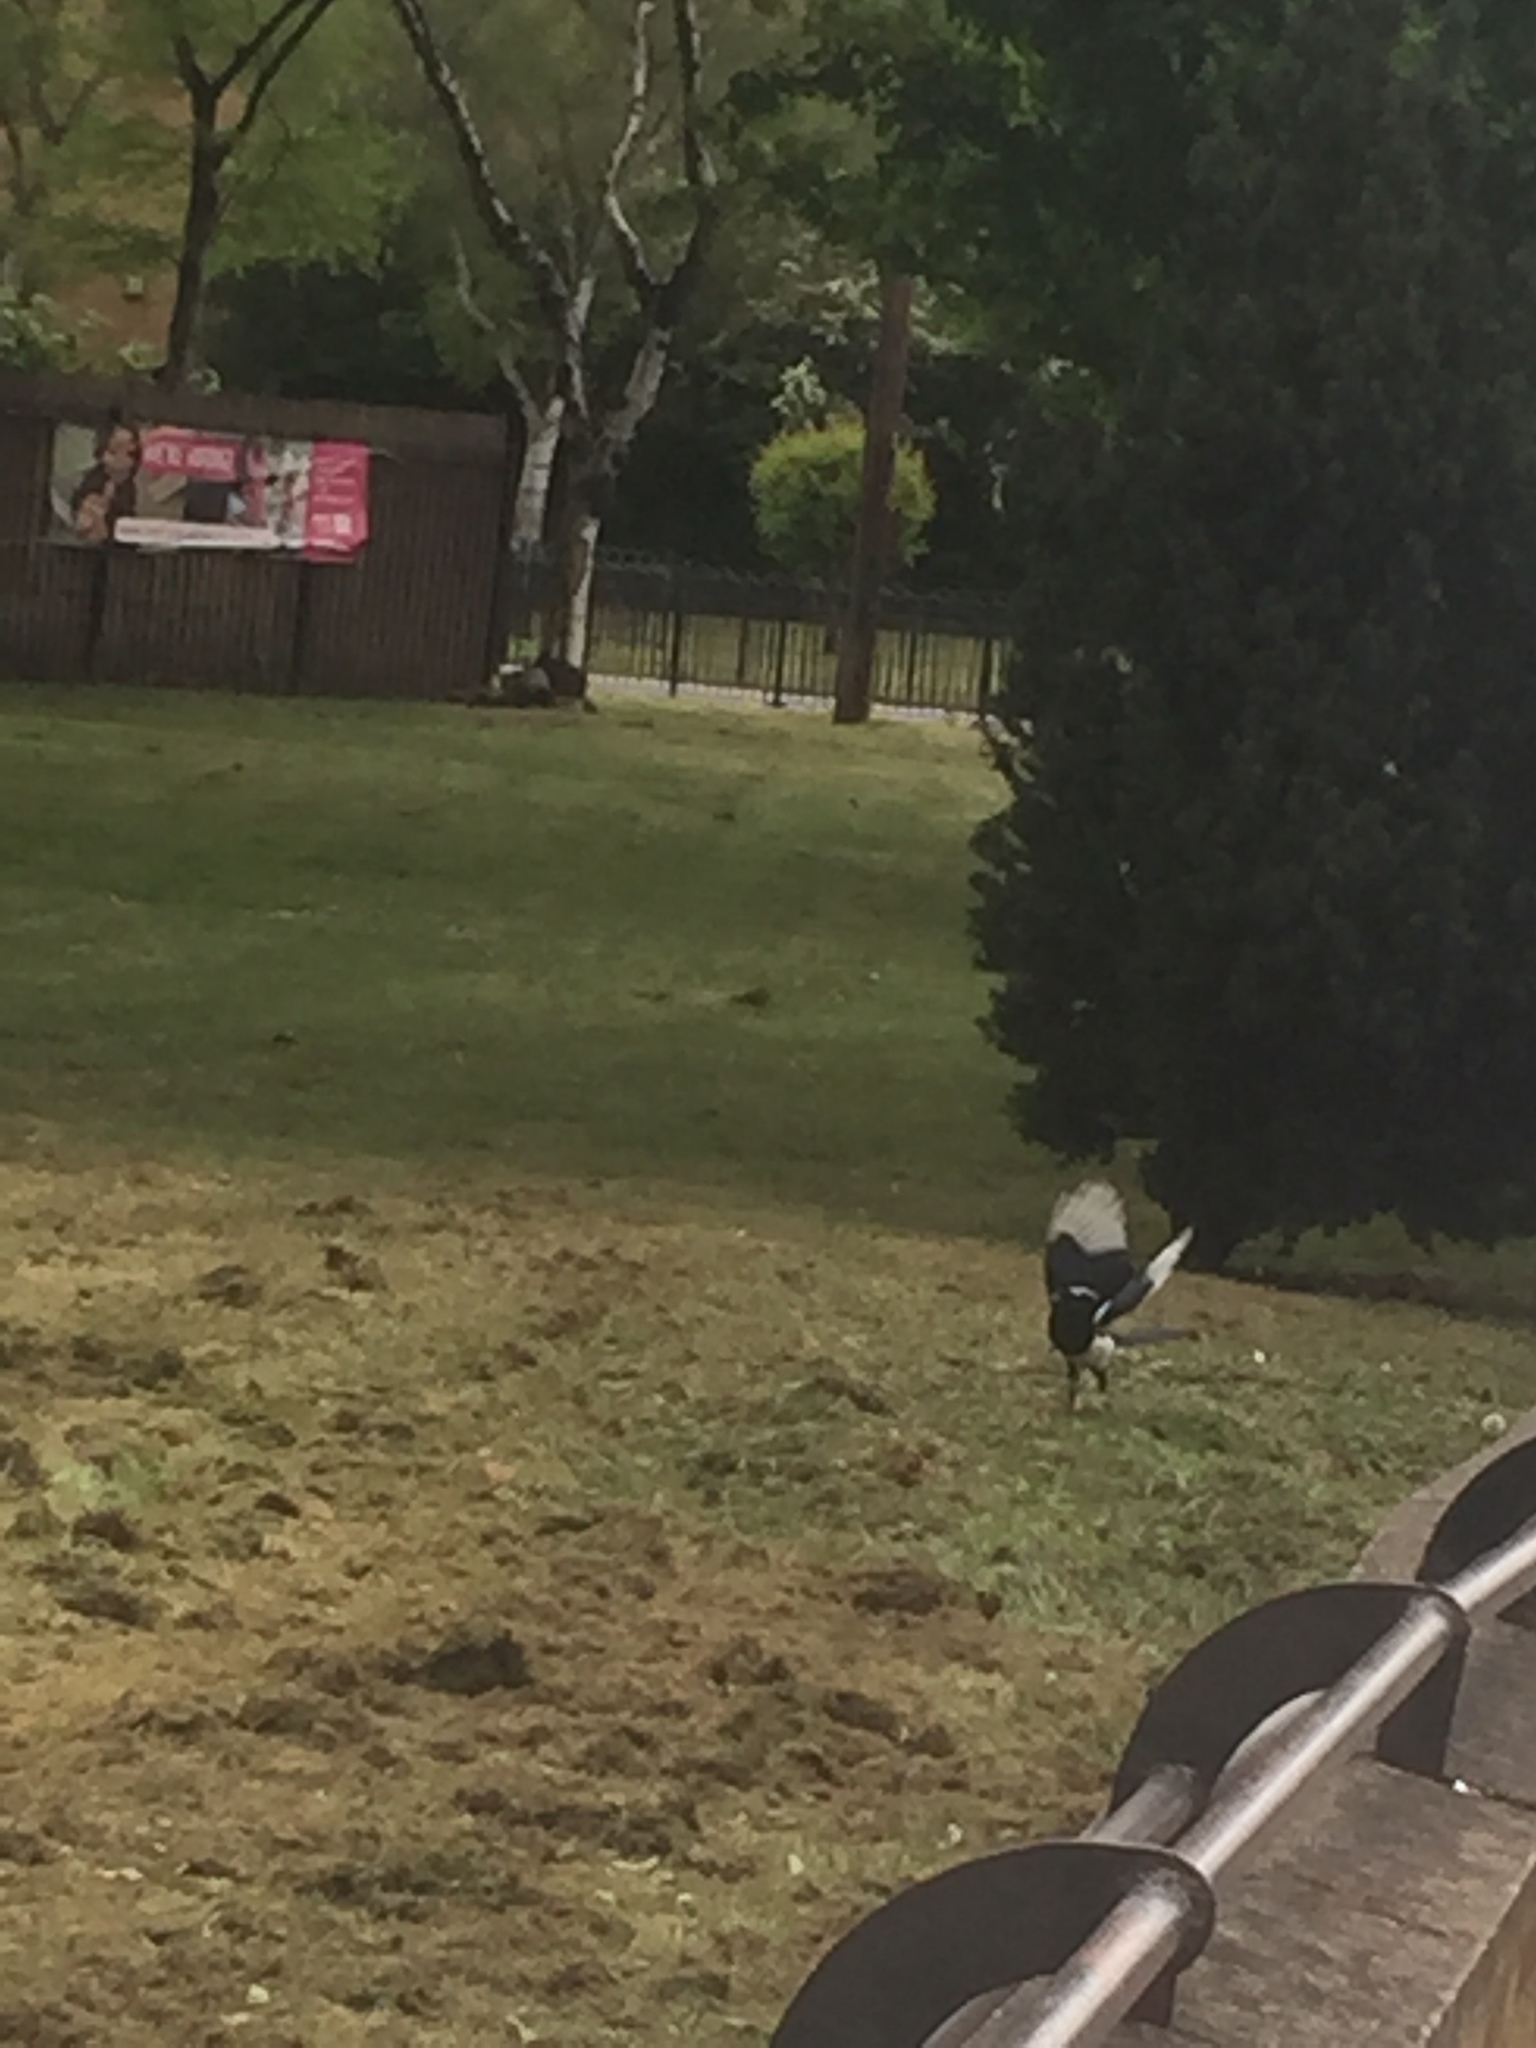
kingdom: Animalia
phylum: Chordata
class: Aves
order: Passeriformes
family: Corvidae
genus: Pica
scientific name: Pica pica
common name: Eurasian magpie
